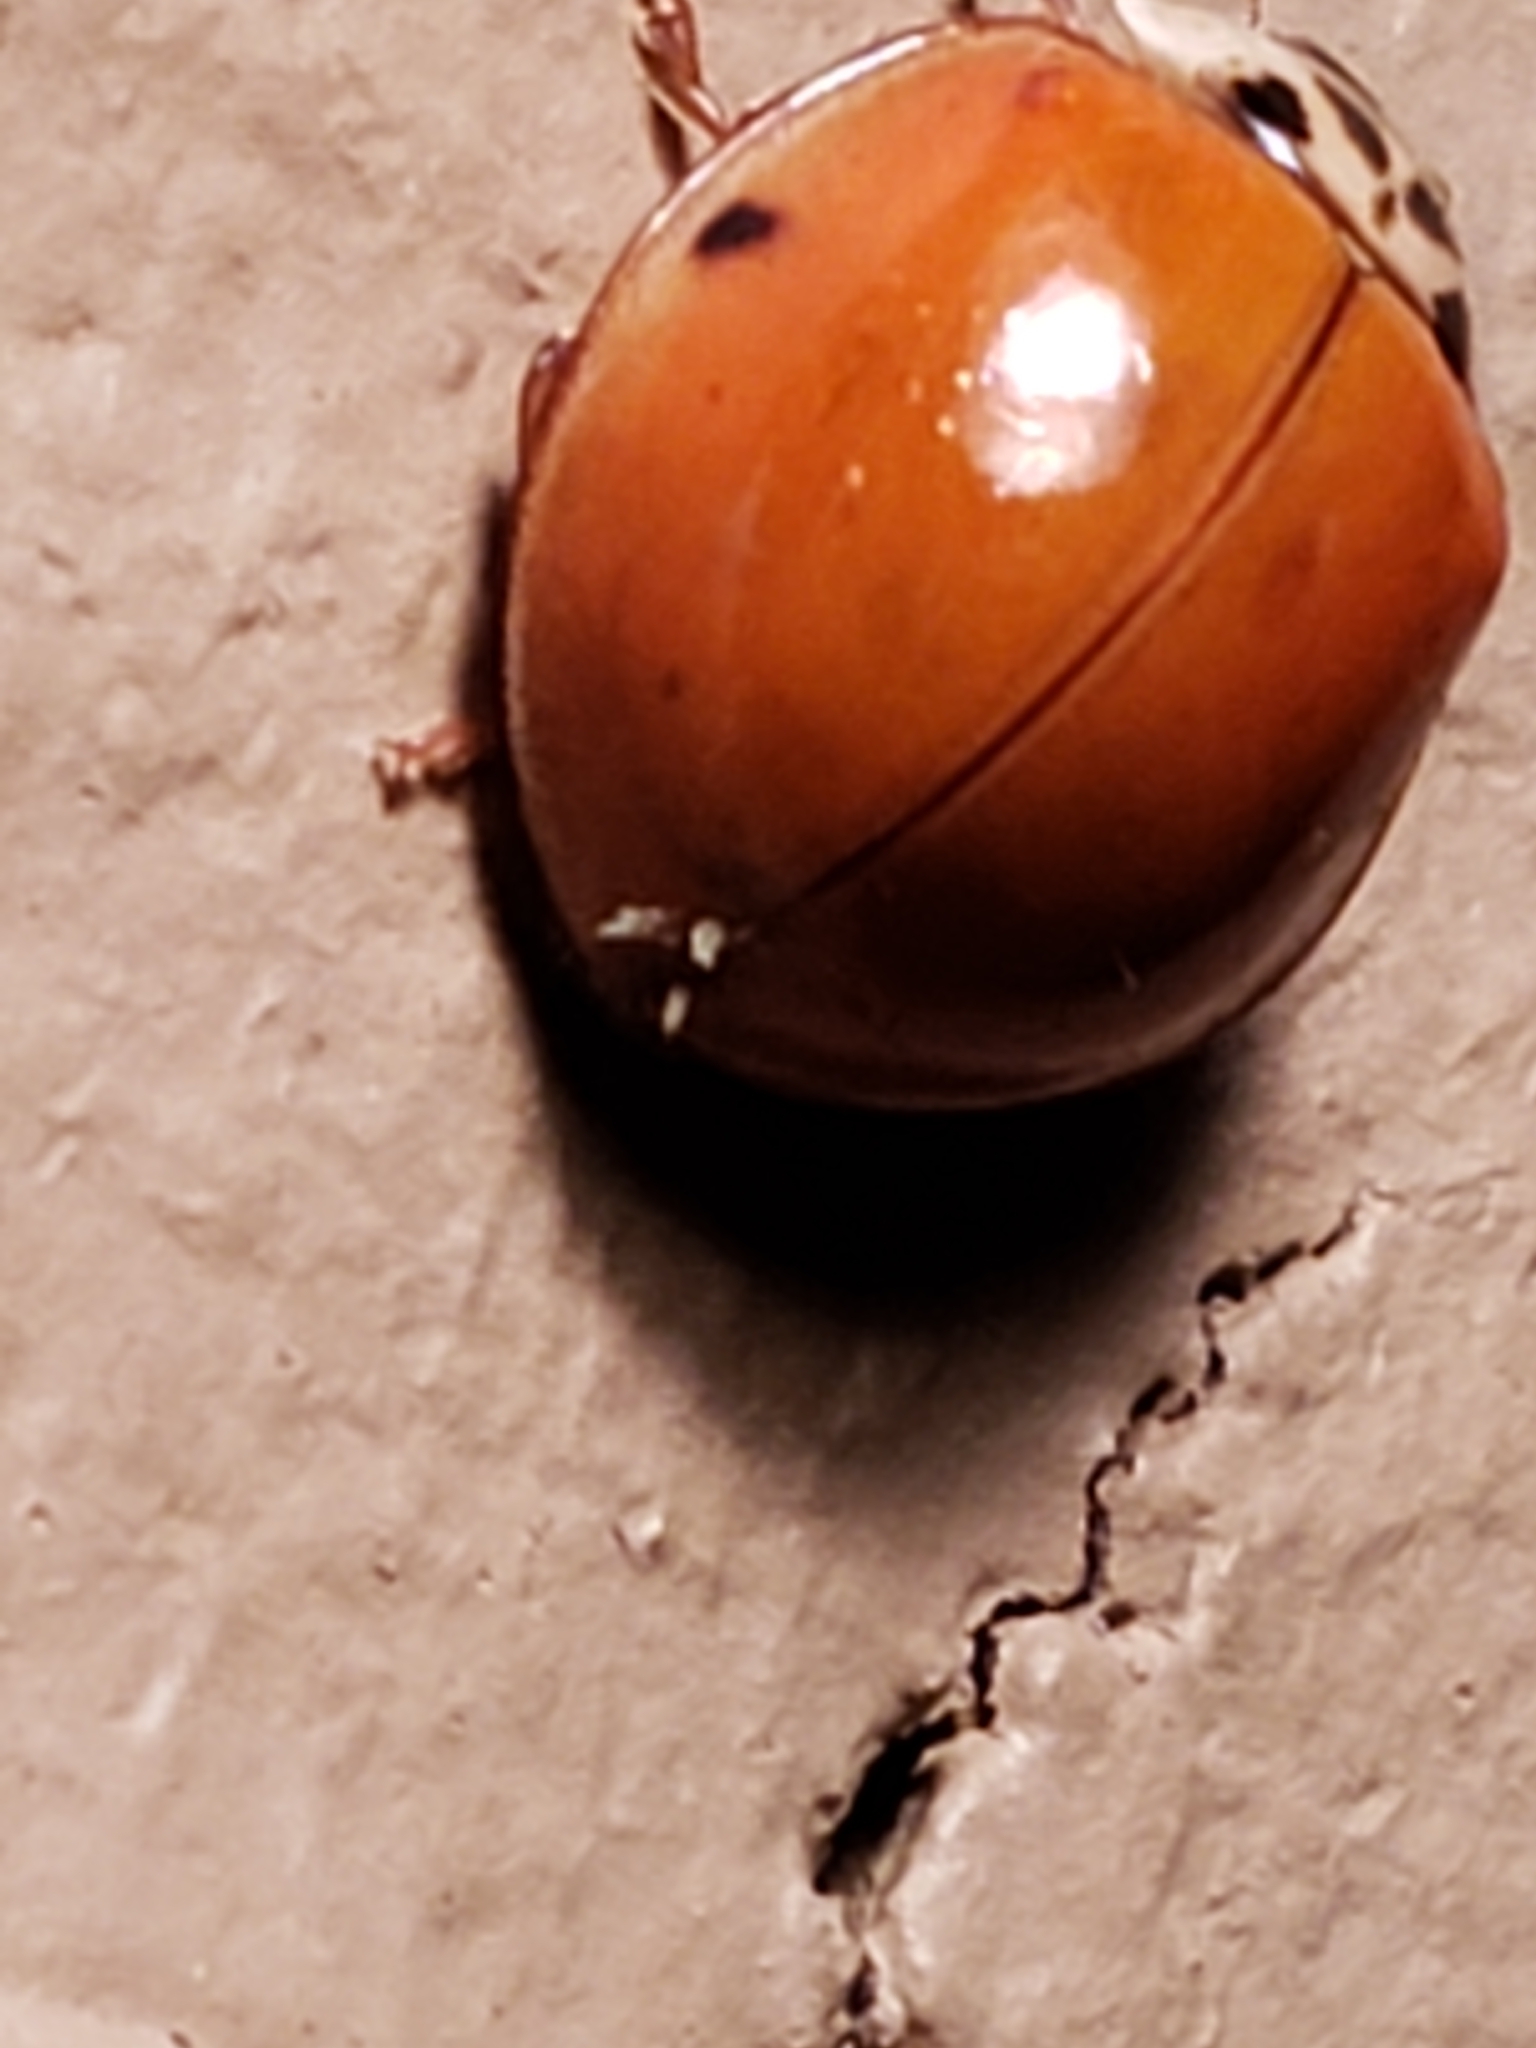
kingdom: Fungi
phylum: Ascomycota
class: Laboulbeniomycetes
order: Laboulbeniales
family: Laboulbeniaceae
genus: Hesperomyces
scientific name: Hesperomyces harmoniae
